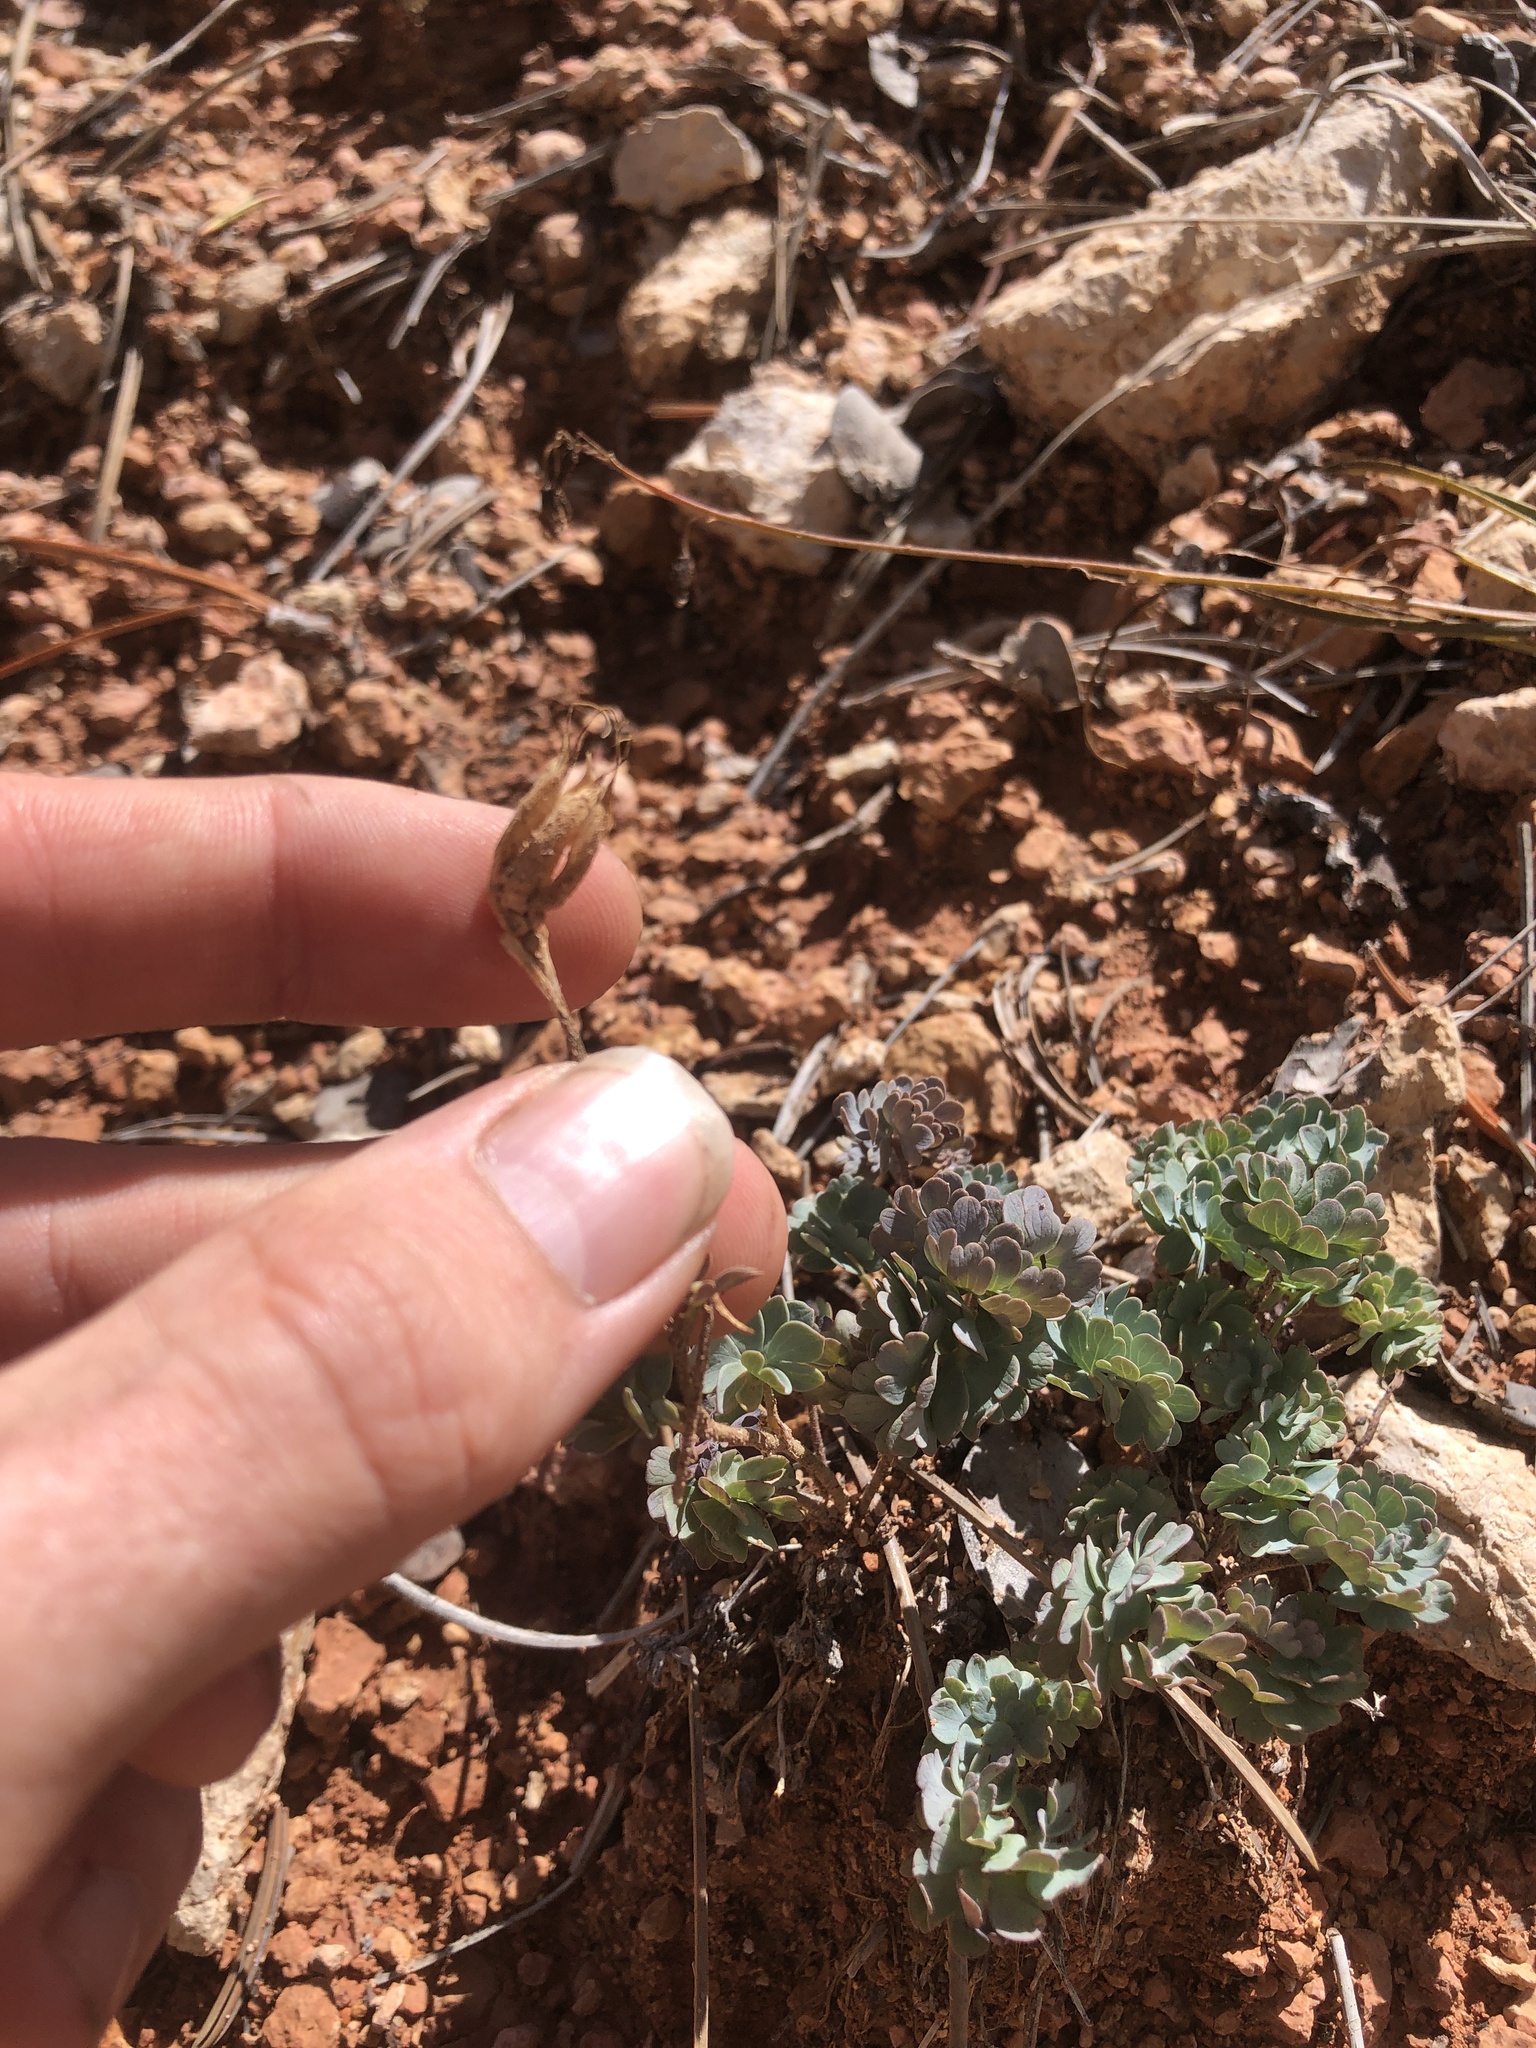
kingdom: Plantae
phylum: Tracheophyta
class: Magnoliopsida
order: Ranunculales
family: Ranunculaceae
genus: Aquilegia
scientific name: Aquilegia scopulorum
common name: Rock columbine
